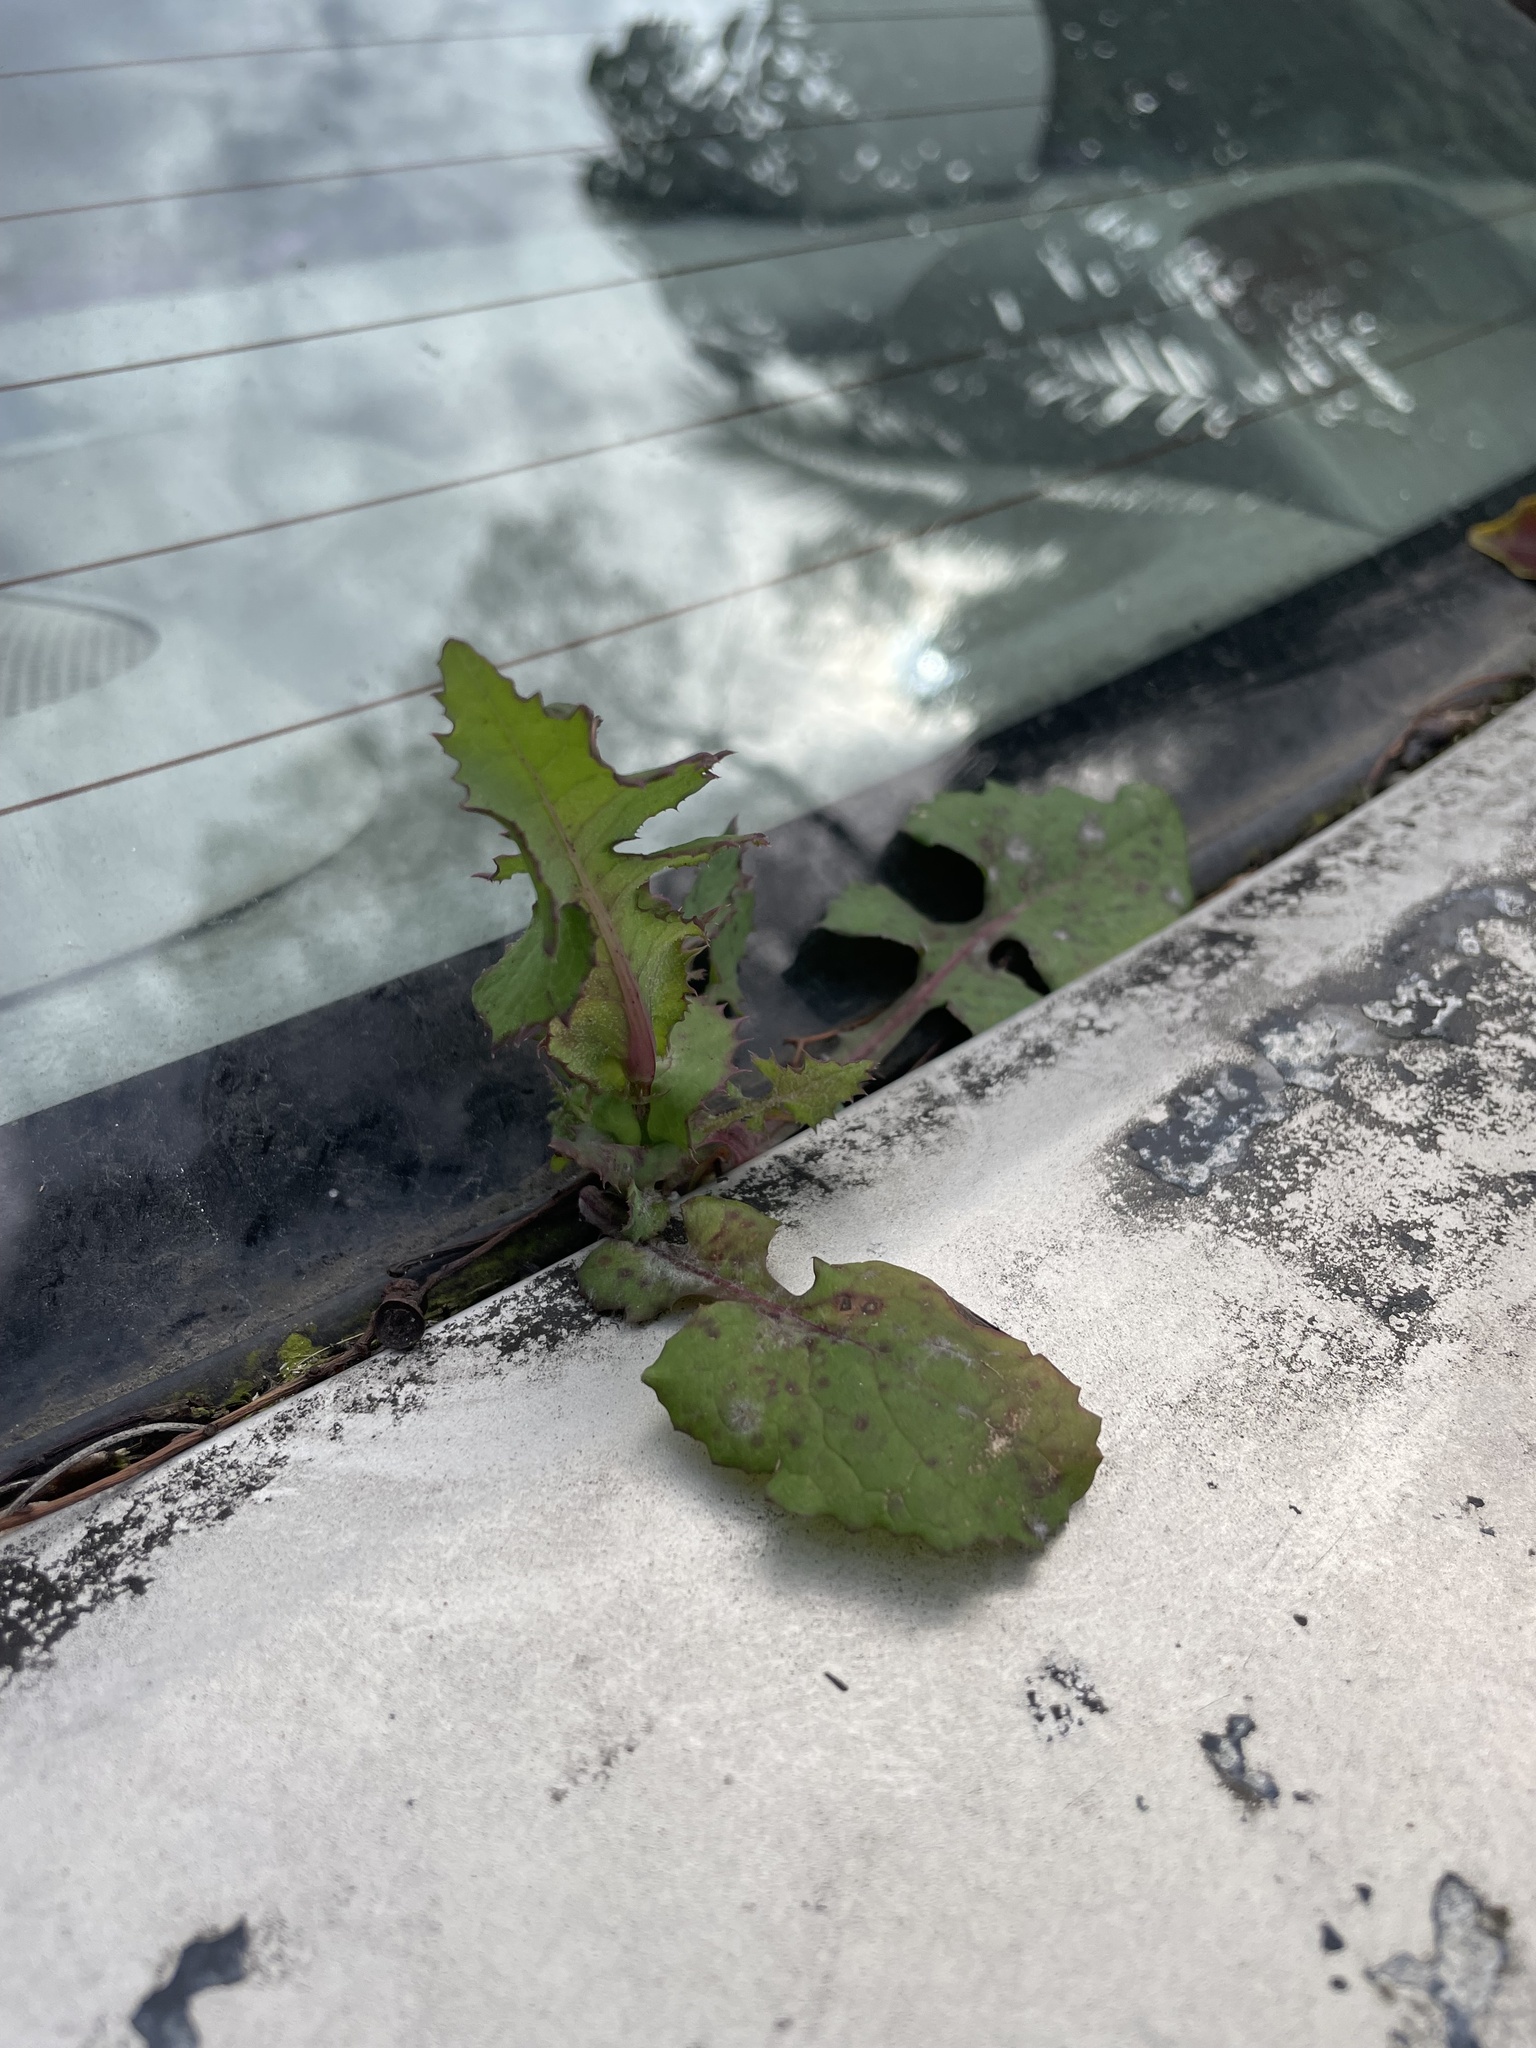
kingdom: Plantae
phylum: Tracheophyta
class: Magnoliopsida
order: Asterales
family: Asteraceae
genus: Sonchus
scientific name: Sonchus oleraceus
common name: Common sowthistle
